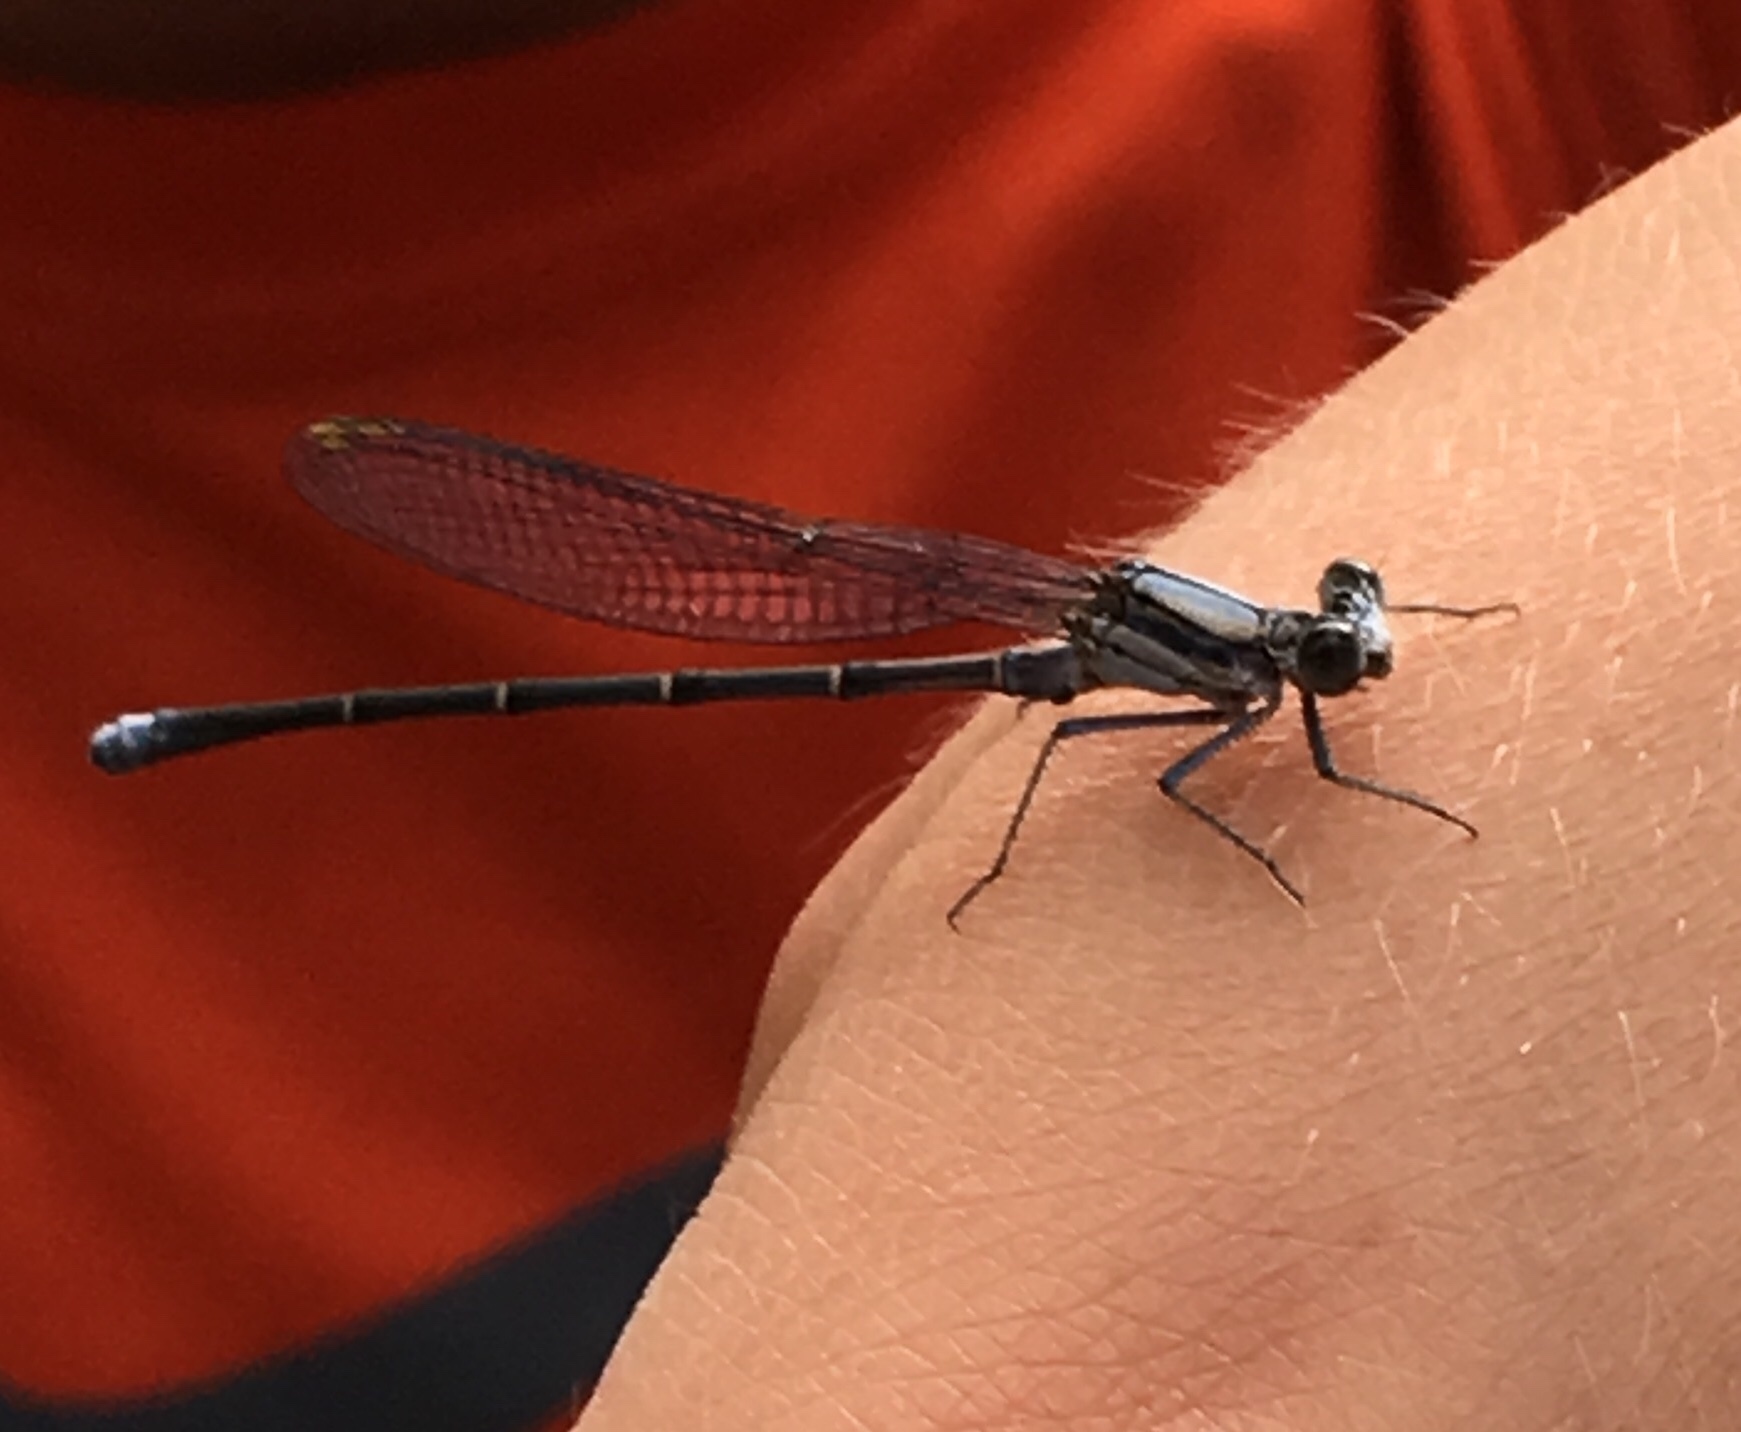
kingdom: Animalia
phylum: Arthropoda
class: Insecta
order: Odonata
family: Coenagrionidae
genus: Argia
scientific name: Argia moesta
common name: Powdered dancer
